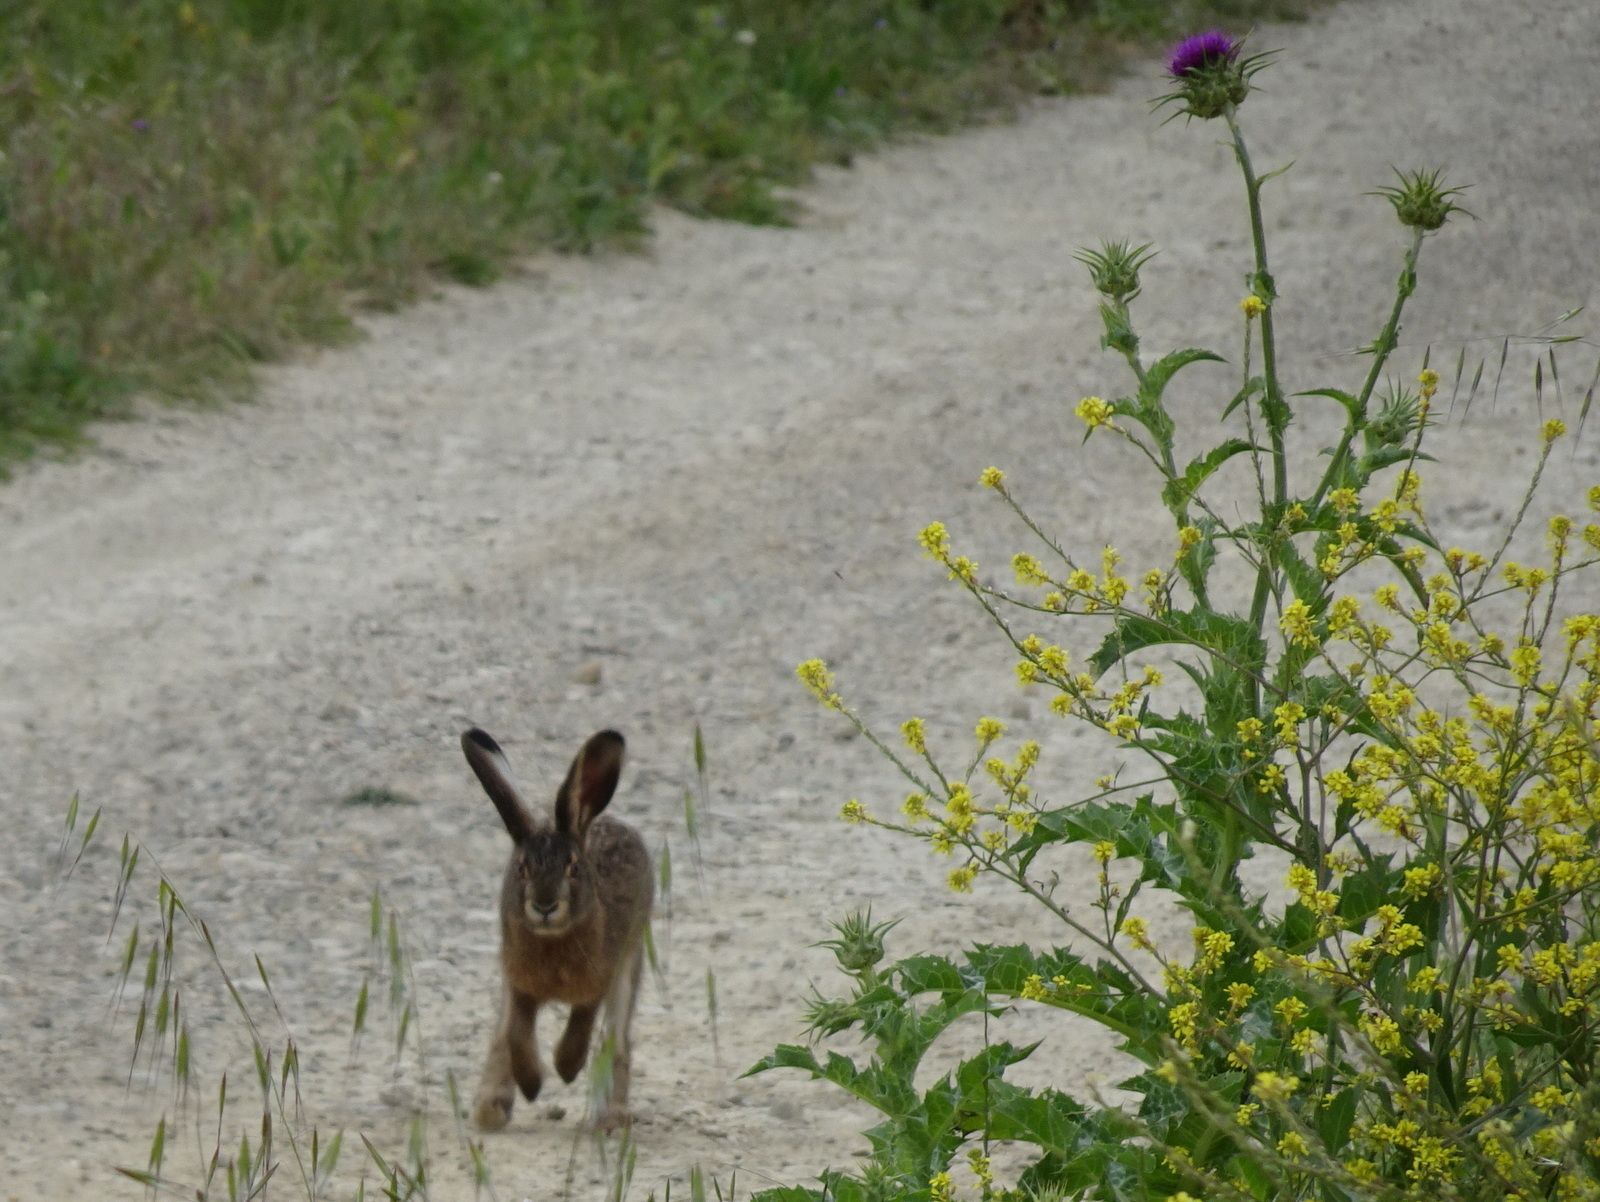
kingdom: Animalia
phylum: Chordata
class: Mammalia
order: Lagomorpha
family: Leporidae
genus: Lepus
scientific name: Lepus europaeus
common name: European hare
